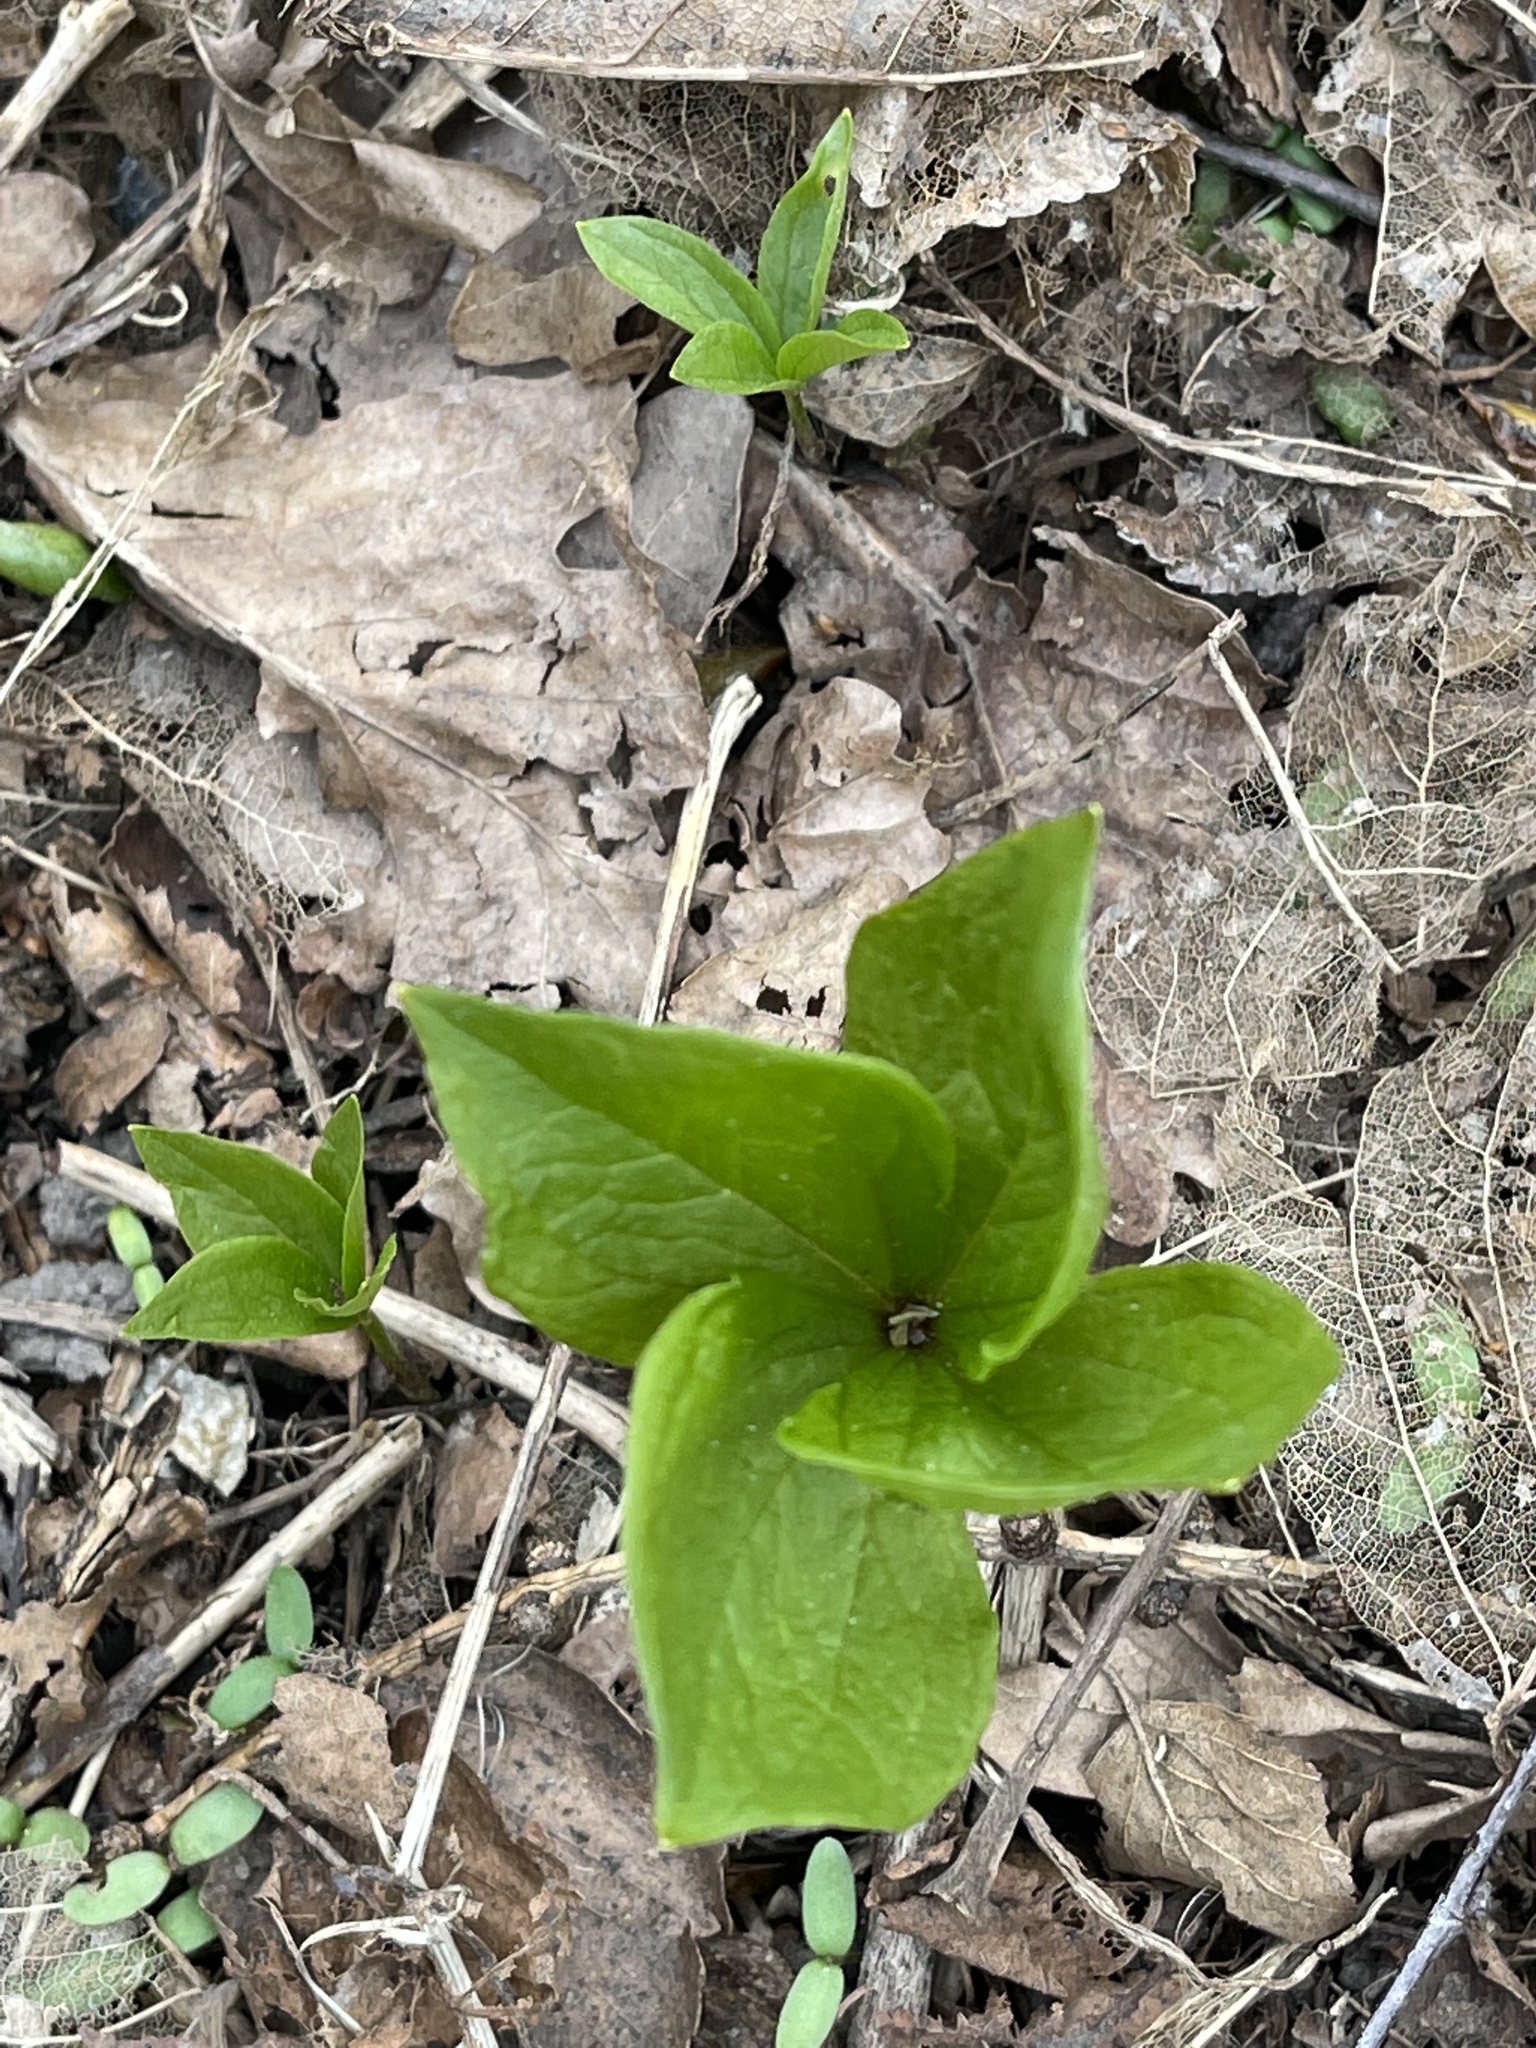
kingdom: Plantae
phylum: Tracheophyta
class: Liliopsida
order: Liliales
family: Melanthiaceae
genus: Paris
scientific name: Paris quadrifolia
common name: Herb-paris
